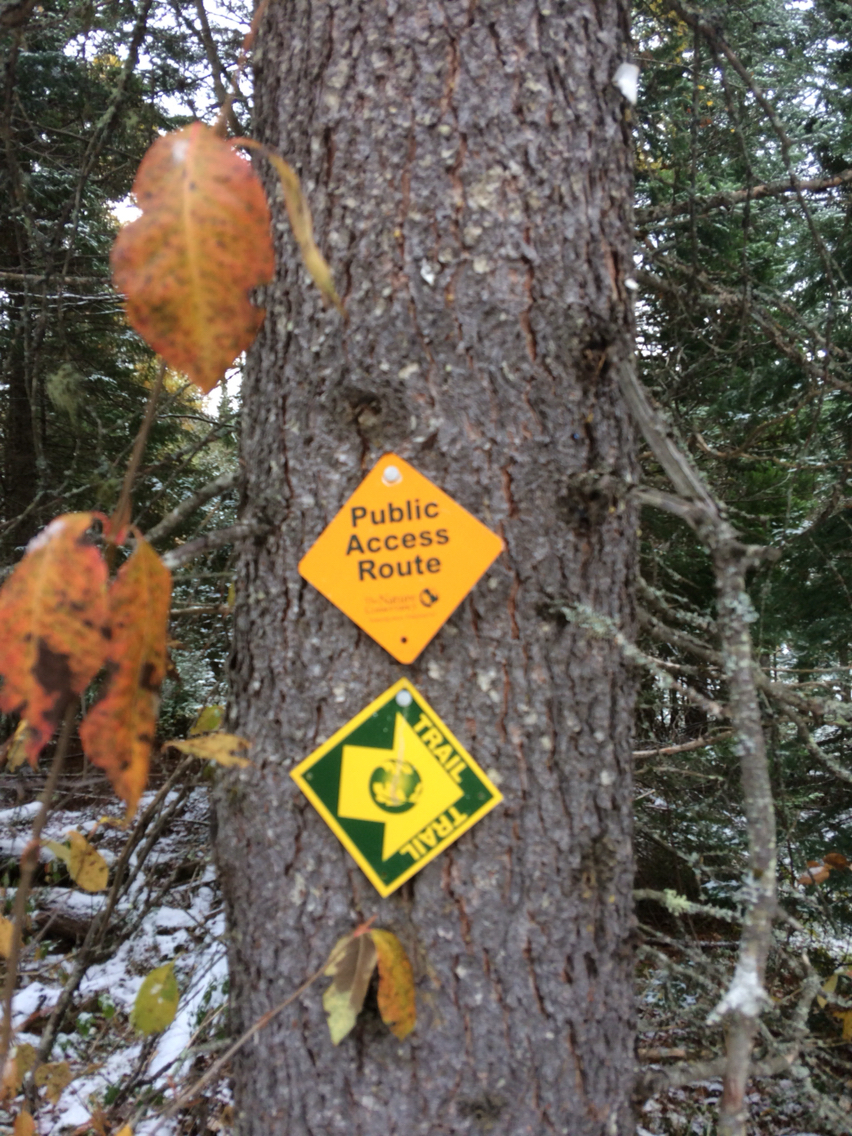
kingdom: Plantae
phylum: Tracheophyta
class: Pinopsida
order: Pinales
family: Pinaceae
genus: Larix
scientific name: Larix laricina
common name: American larch
